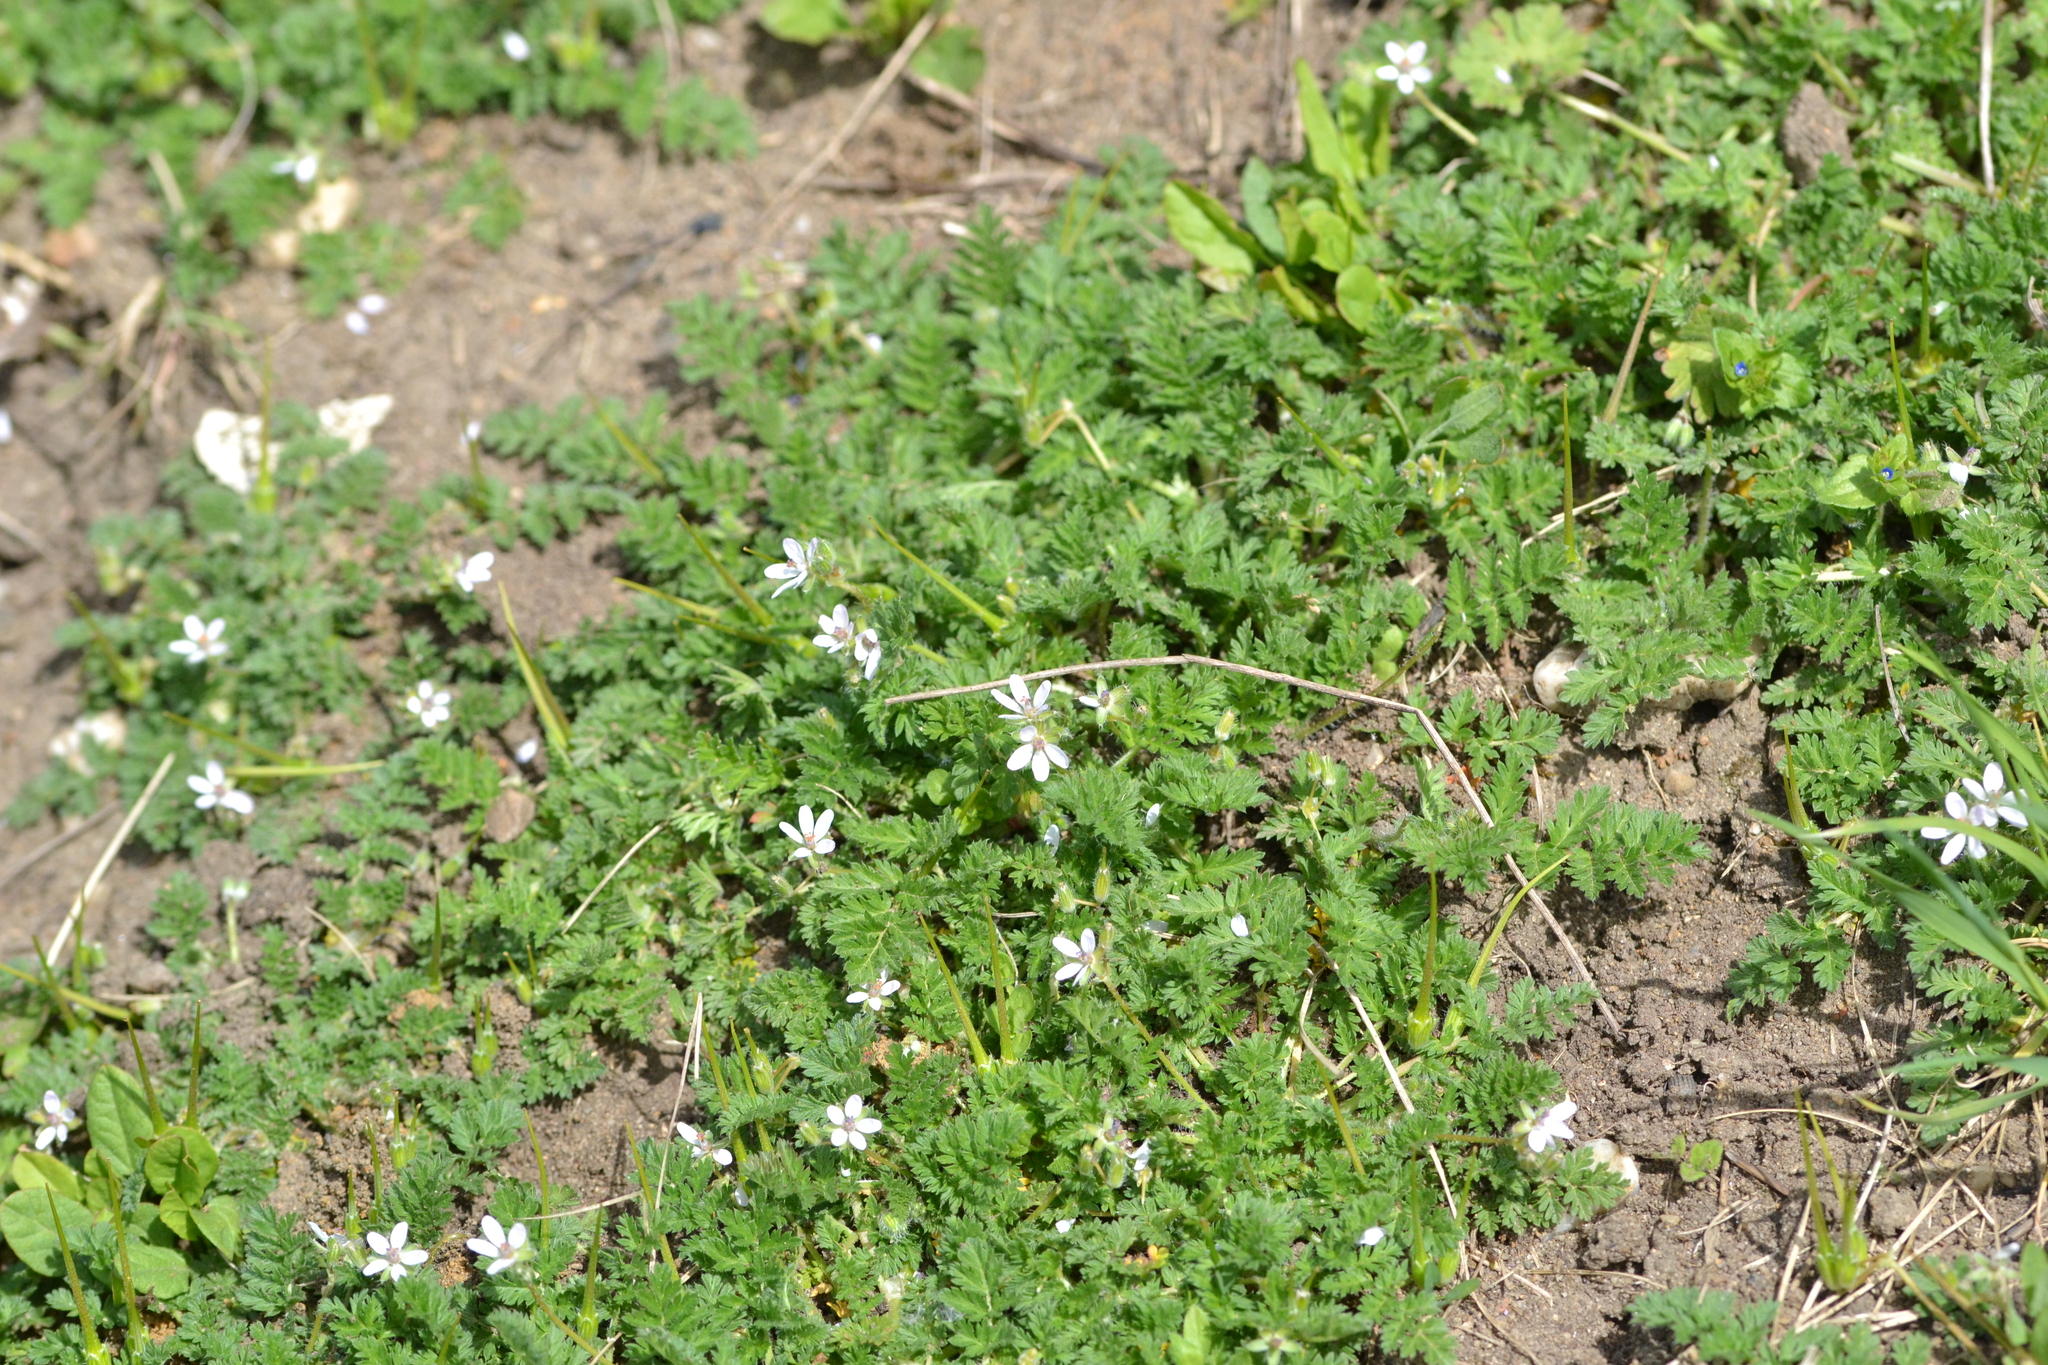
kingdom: Plantae
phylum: Tracheophyta
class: Magnoliopsida
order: Geraniales
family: Geraniaceae
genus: Erodium
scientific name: Erodium cicutarium
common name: Common stork's-bill
